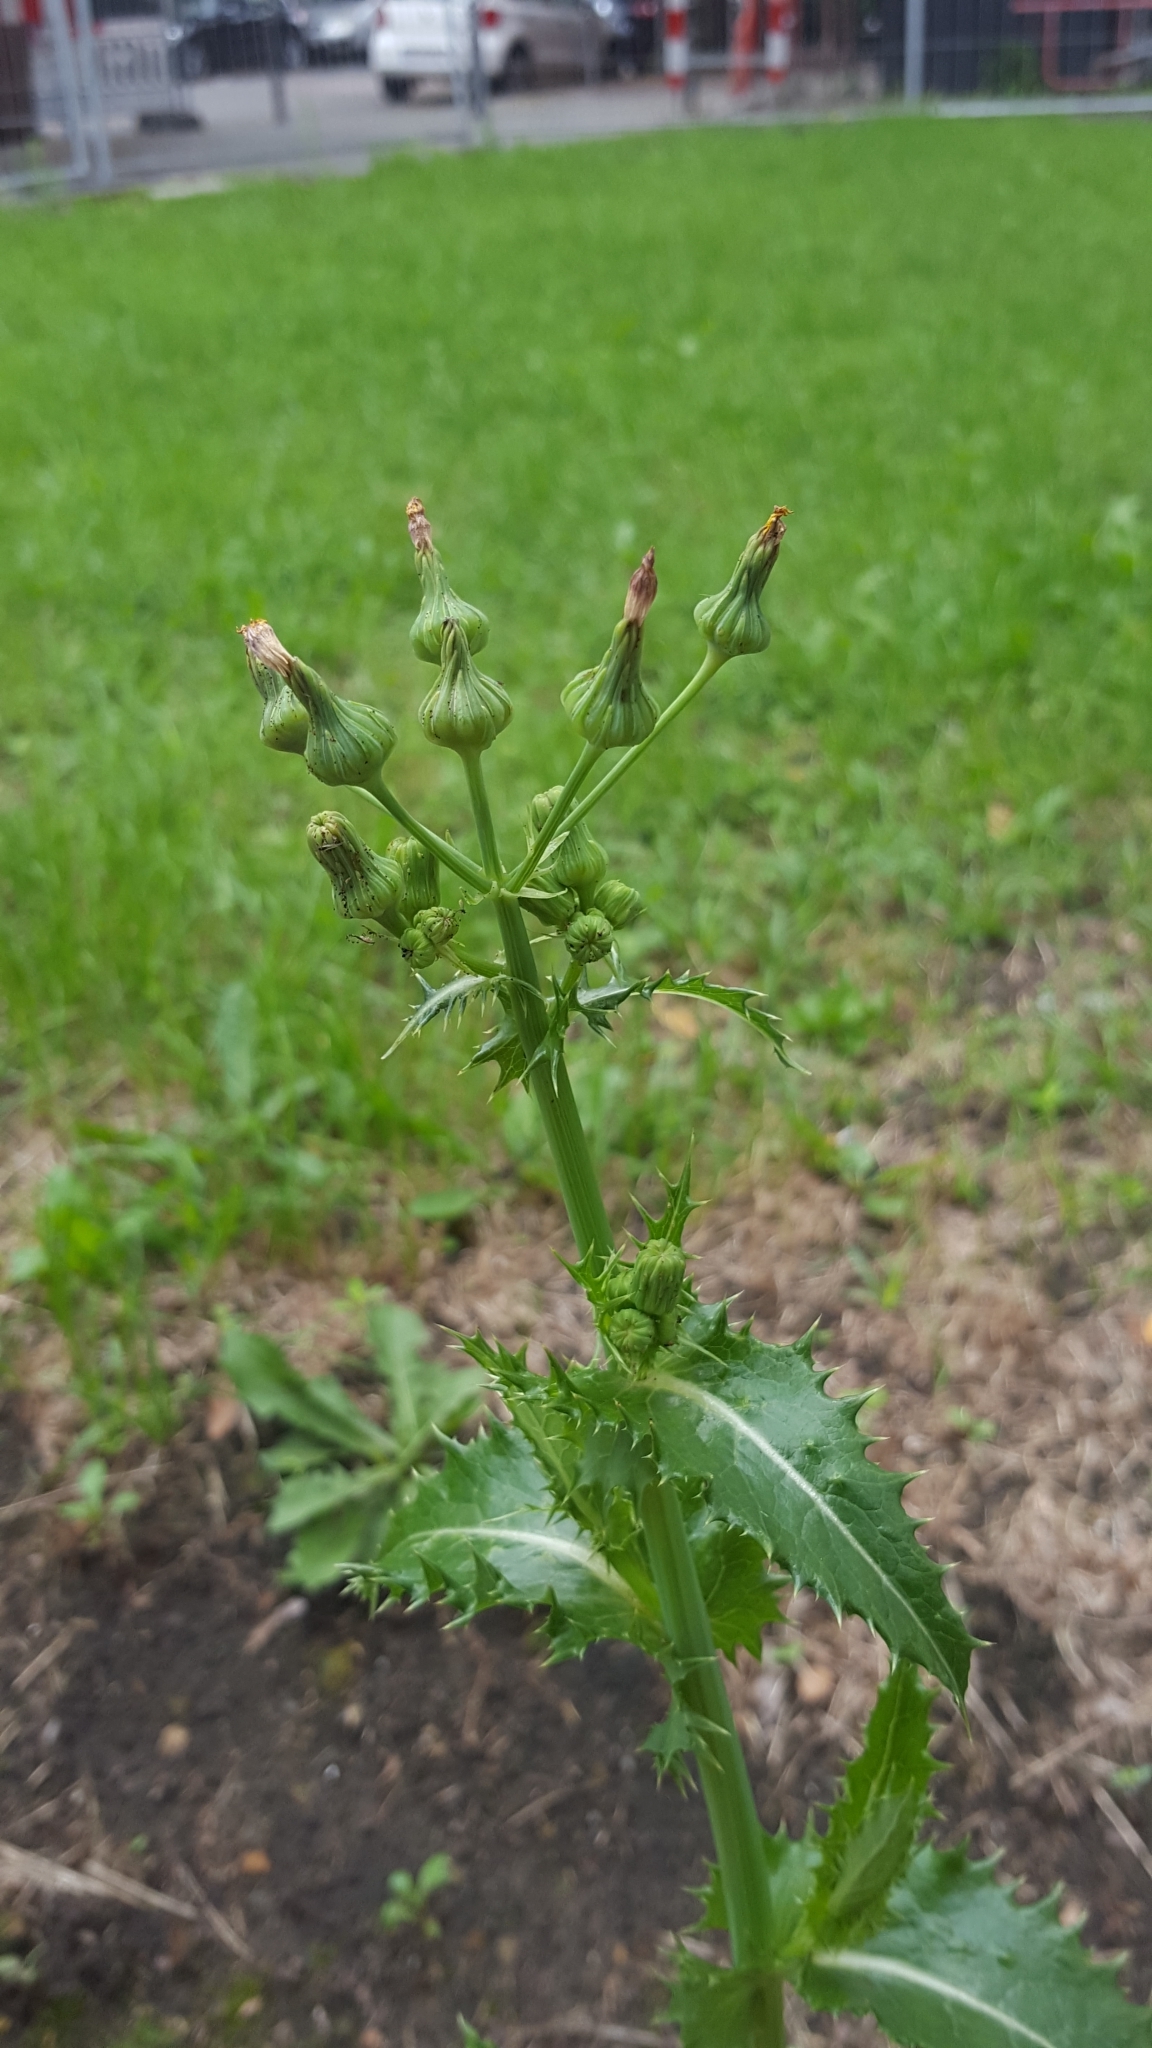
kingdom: Plantae
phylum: Tracheophyta
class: Magnoliopsida
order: Asterales
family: Asteraceae
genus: Sonchus
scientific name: Sonchus asper
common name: Prickly sow-thistle
